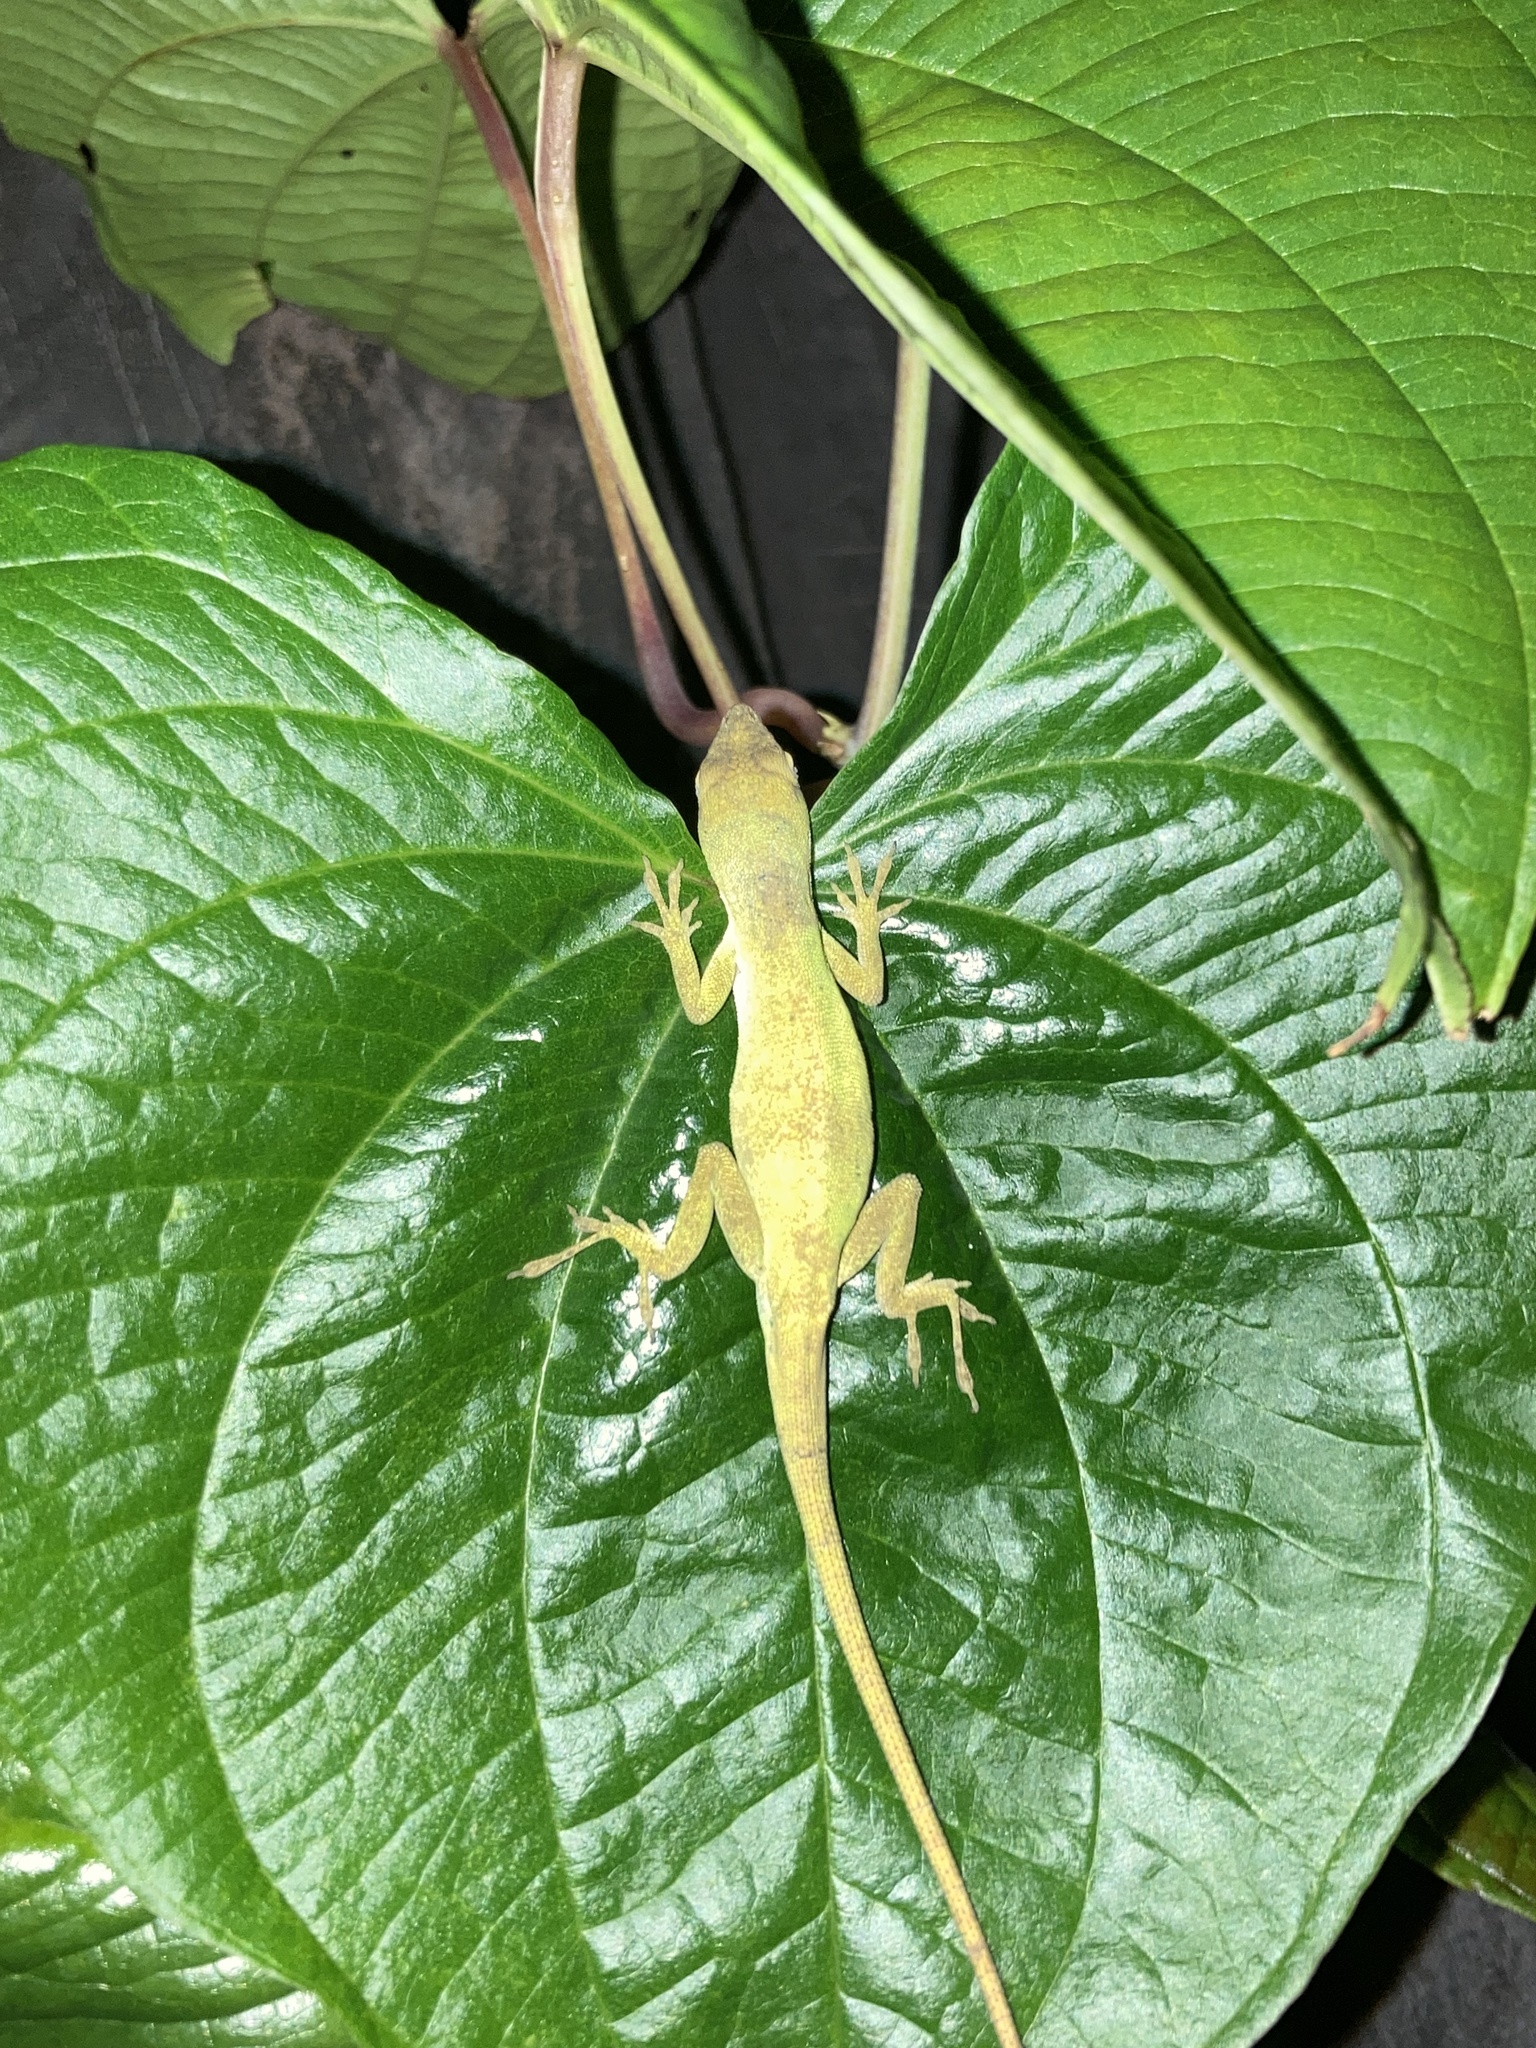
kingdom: Animalia
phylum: Chordata
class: Squamata
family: Dactyloidae
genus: Anolis
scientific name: Anolis carolinensis
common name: Green anole
